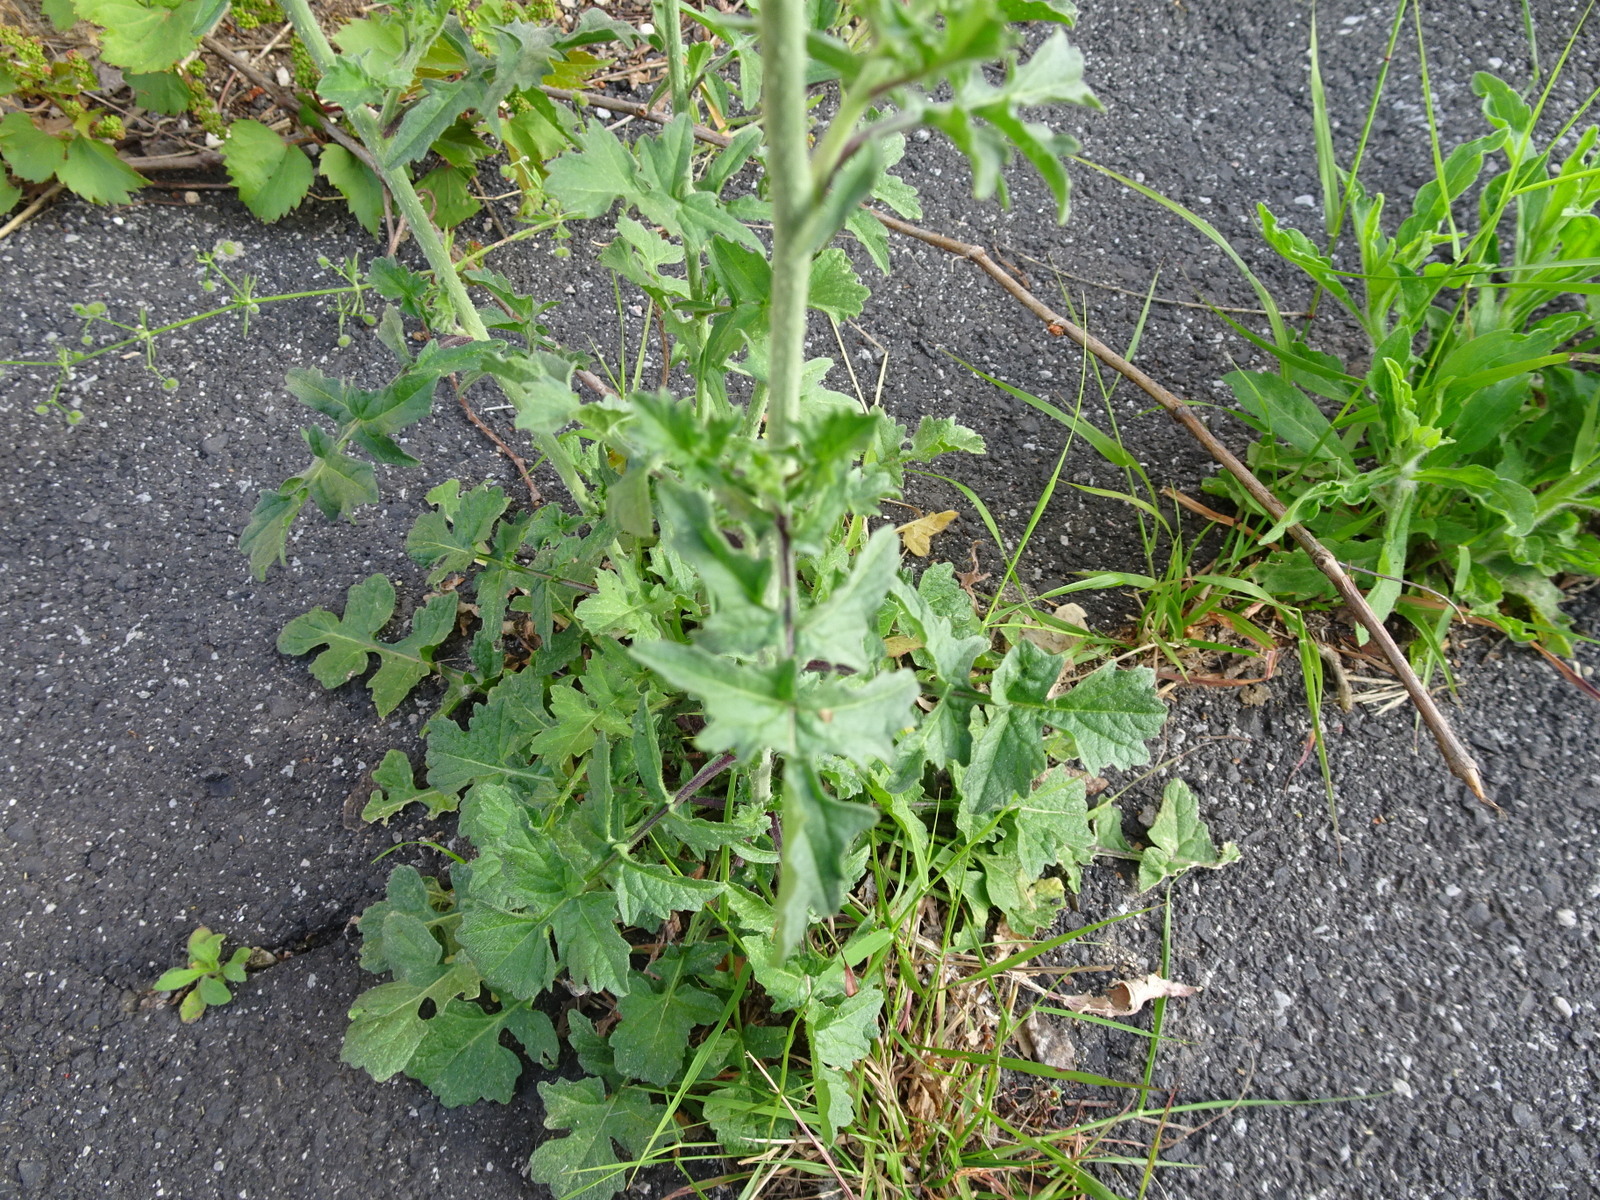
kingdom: Plantae
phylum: Tracheophyta
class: Magnoliopsida
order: Brassicales
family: Brassicaceae
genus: Sisymbrium
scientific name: Sisymbrium officinale
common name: Hedge mustard
